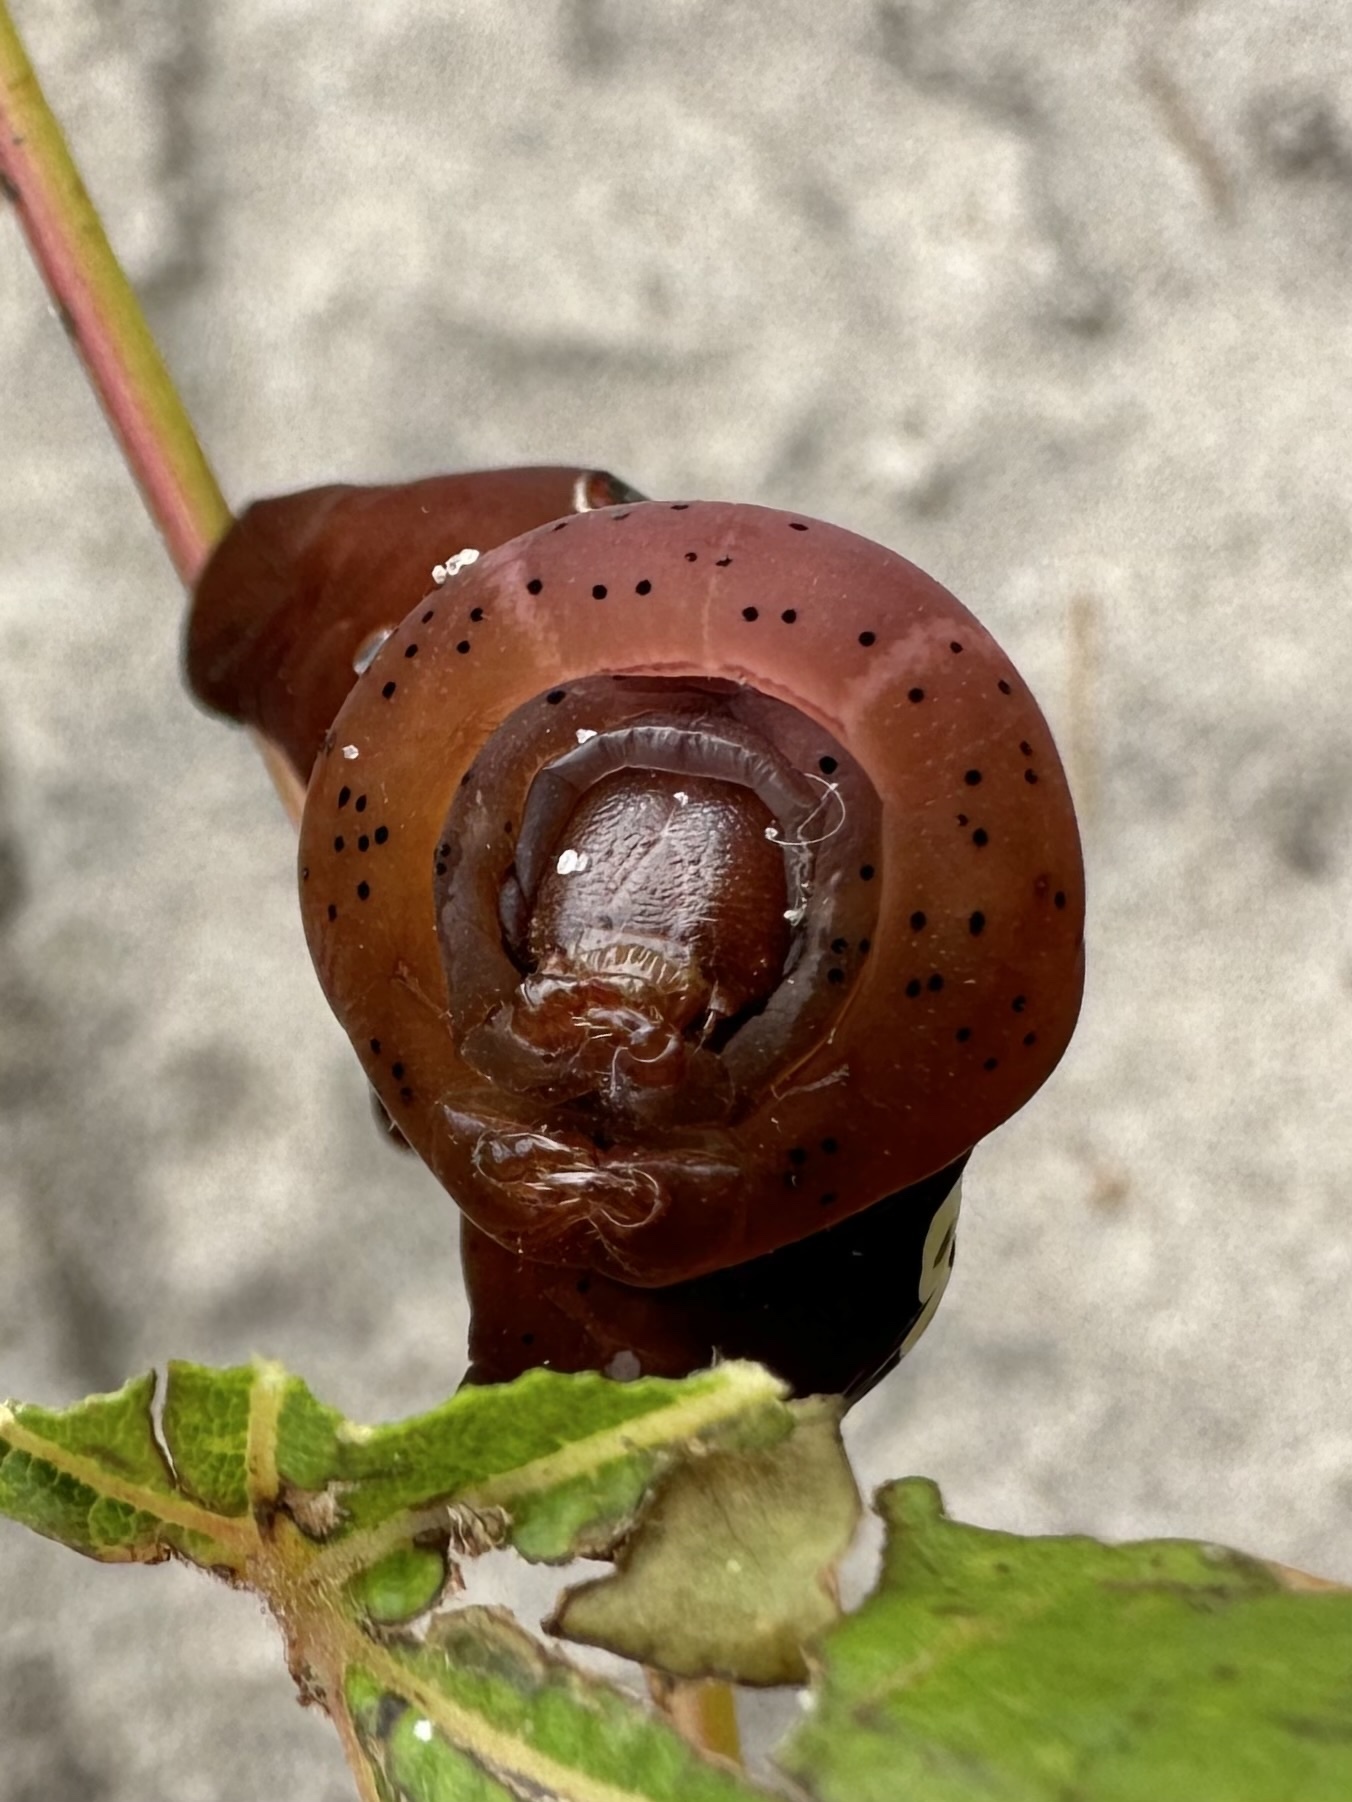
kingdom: Animalia
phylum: Arthropoda
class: Insecta
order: Lepidoptera
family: Sphingidae
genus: Eumorpha
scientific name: Eumorpha pandorus
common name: Pandora sphinx
